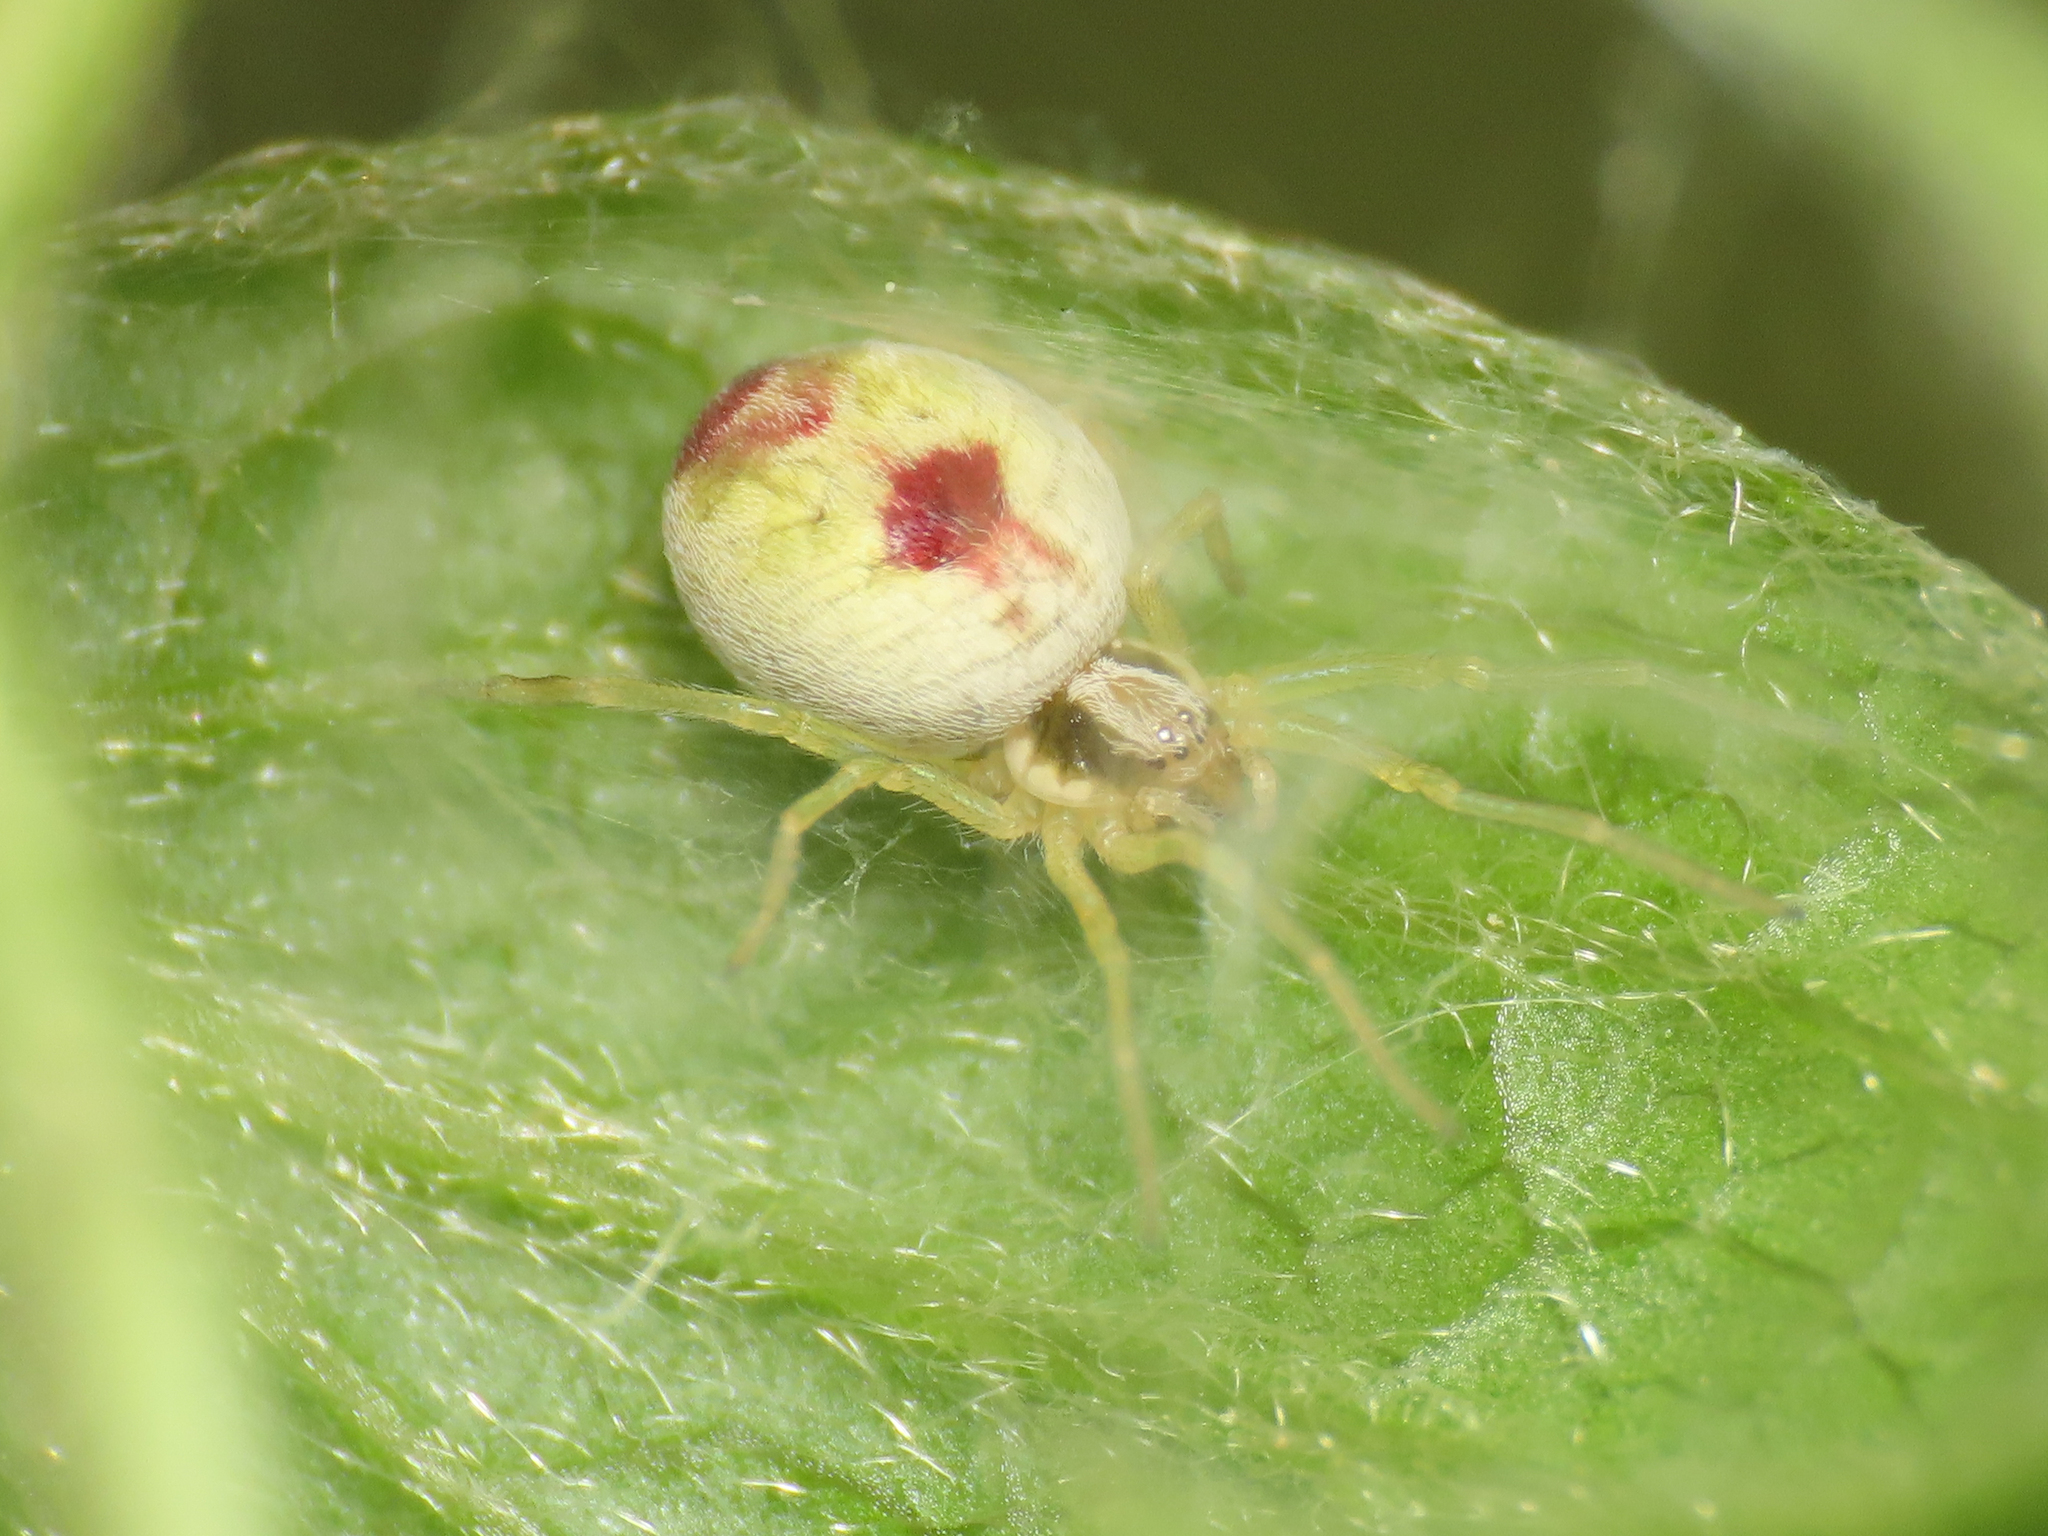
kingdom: Animalia
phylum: Arthropoda
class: Arachnida
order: Araneae
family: Dictynidae
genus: Nigma
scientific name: Nigma puella
